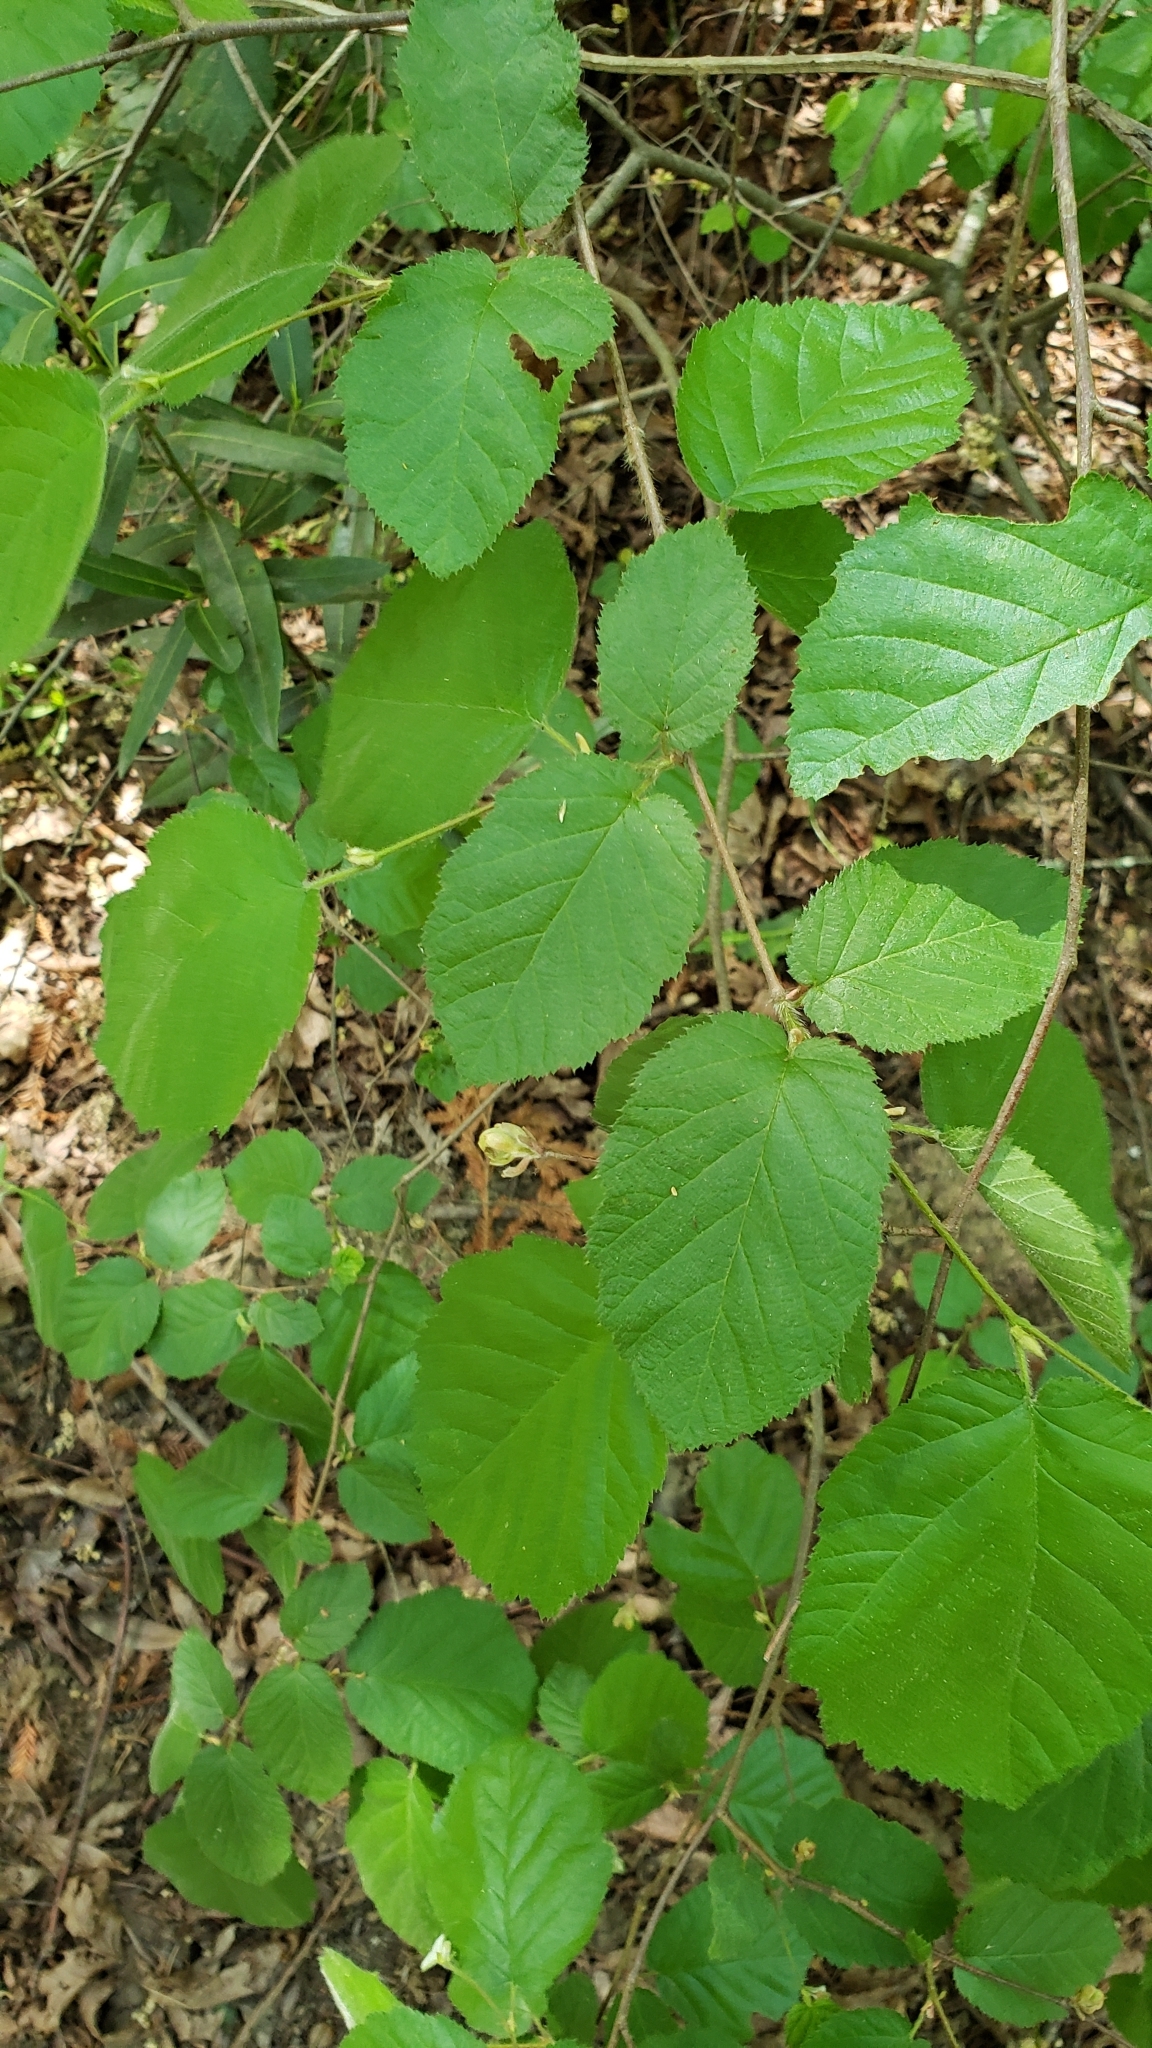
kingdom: Plantae
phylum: Tracheophyta
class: Magnoliopsida
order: Fagales
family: Betulaceae
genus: Corylus
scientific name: Corylus cornuta
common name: Beaked hazel
